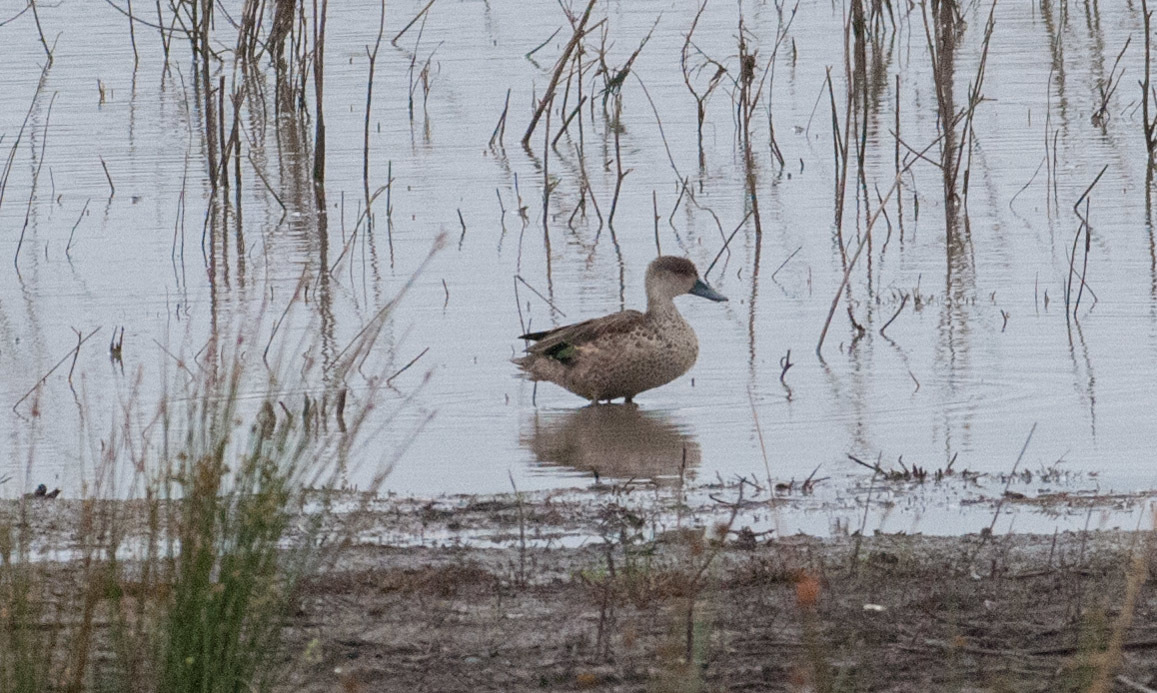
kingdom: Animalia
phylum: Chordata
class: Aves
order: Anseriformes
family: Anatidae
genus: Anas
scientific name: Anas gracilis
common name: Grey teal
